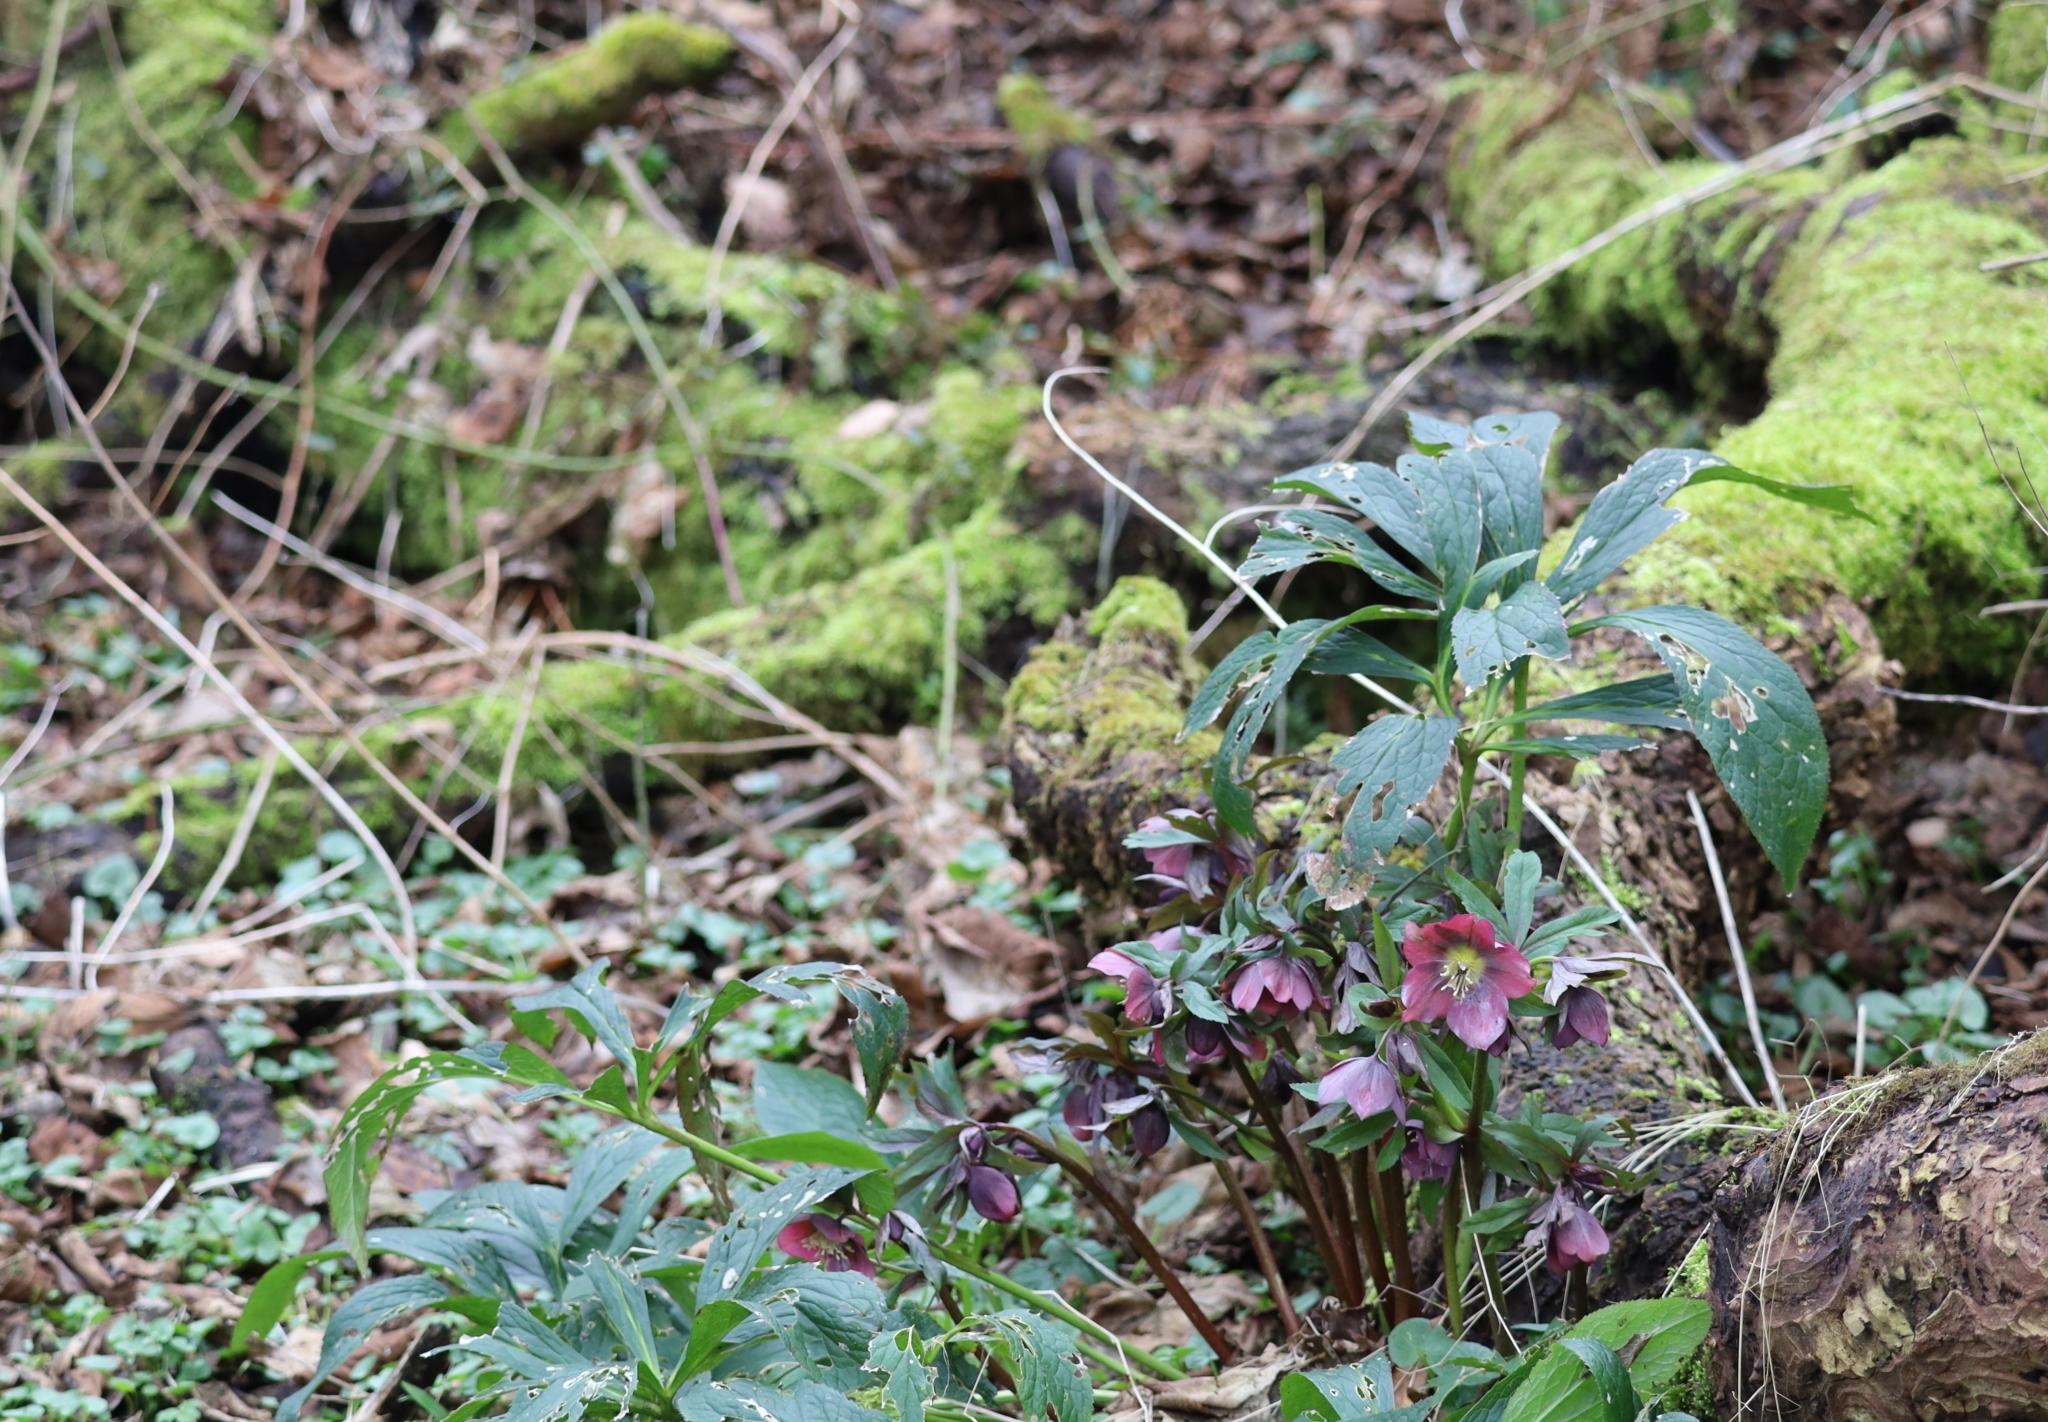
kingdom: Plantae
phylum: Tracheophyta
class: Magnoliopsida
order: Ranunculales
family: Ranunculaceae
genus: Helleborus
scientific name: Helleborus orientalis
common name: Lenten-rose
